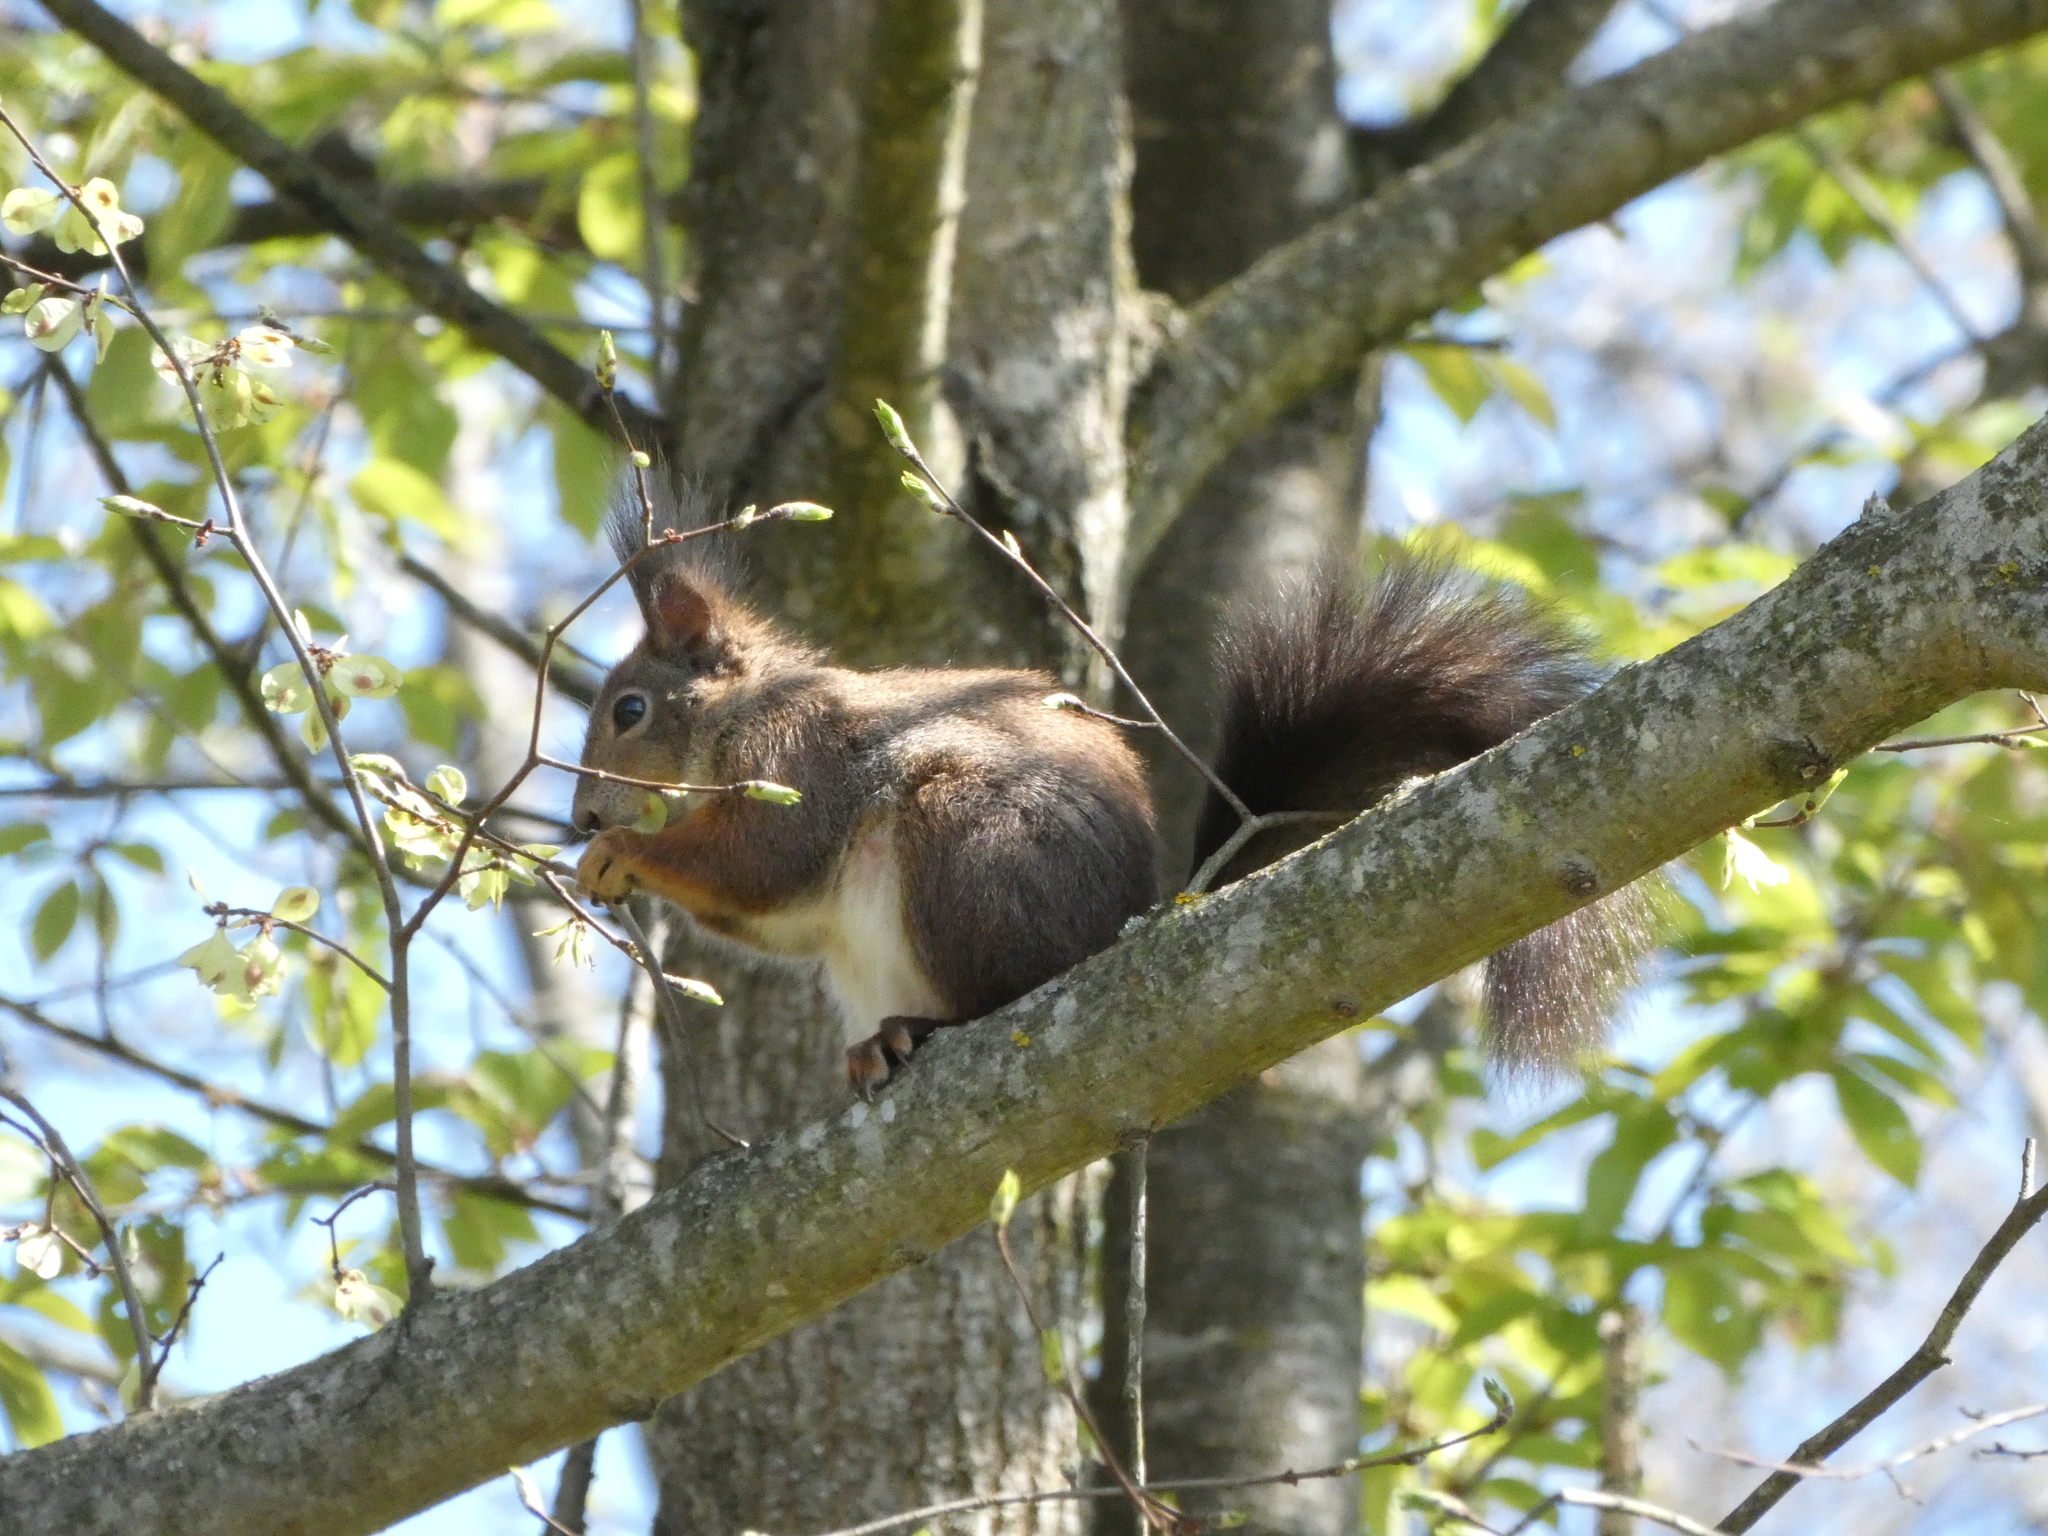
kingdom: Animalia
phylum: Chordata
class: Mammalia
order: Rodentia
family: Sciuridae
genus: Sciurus
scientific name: Sciurus vulgaris
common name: Eurasian red squirrel
